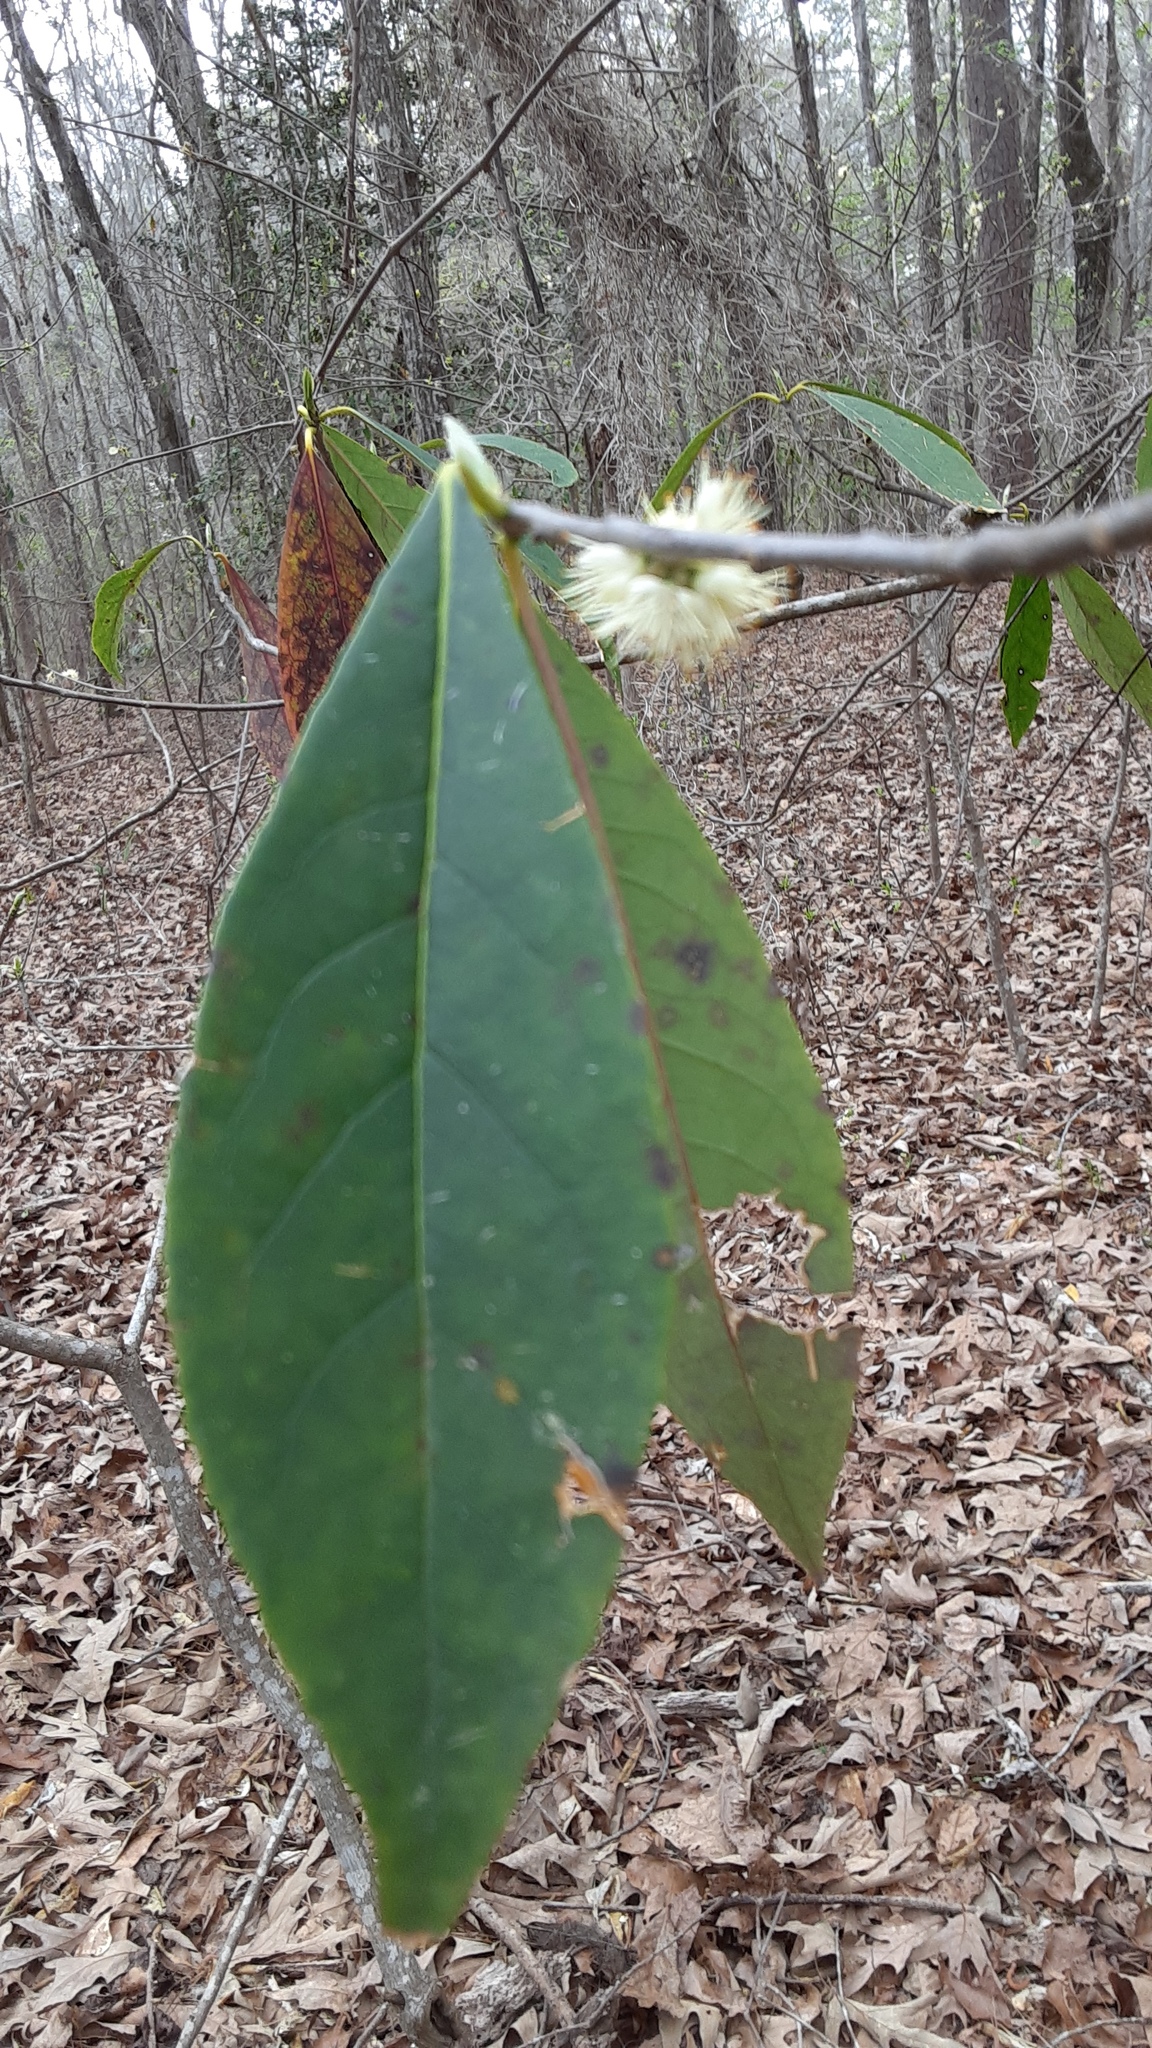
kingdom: Plantae
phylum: Tracheophyta
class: Magnoliopsida
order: Ericales
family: Symplocaceae
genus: Symplocos
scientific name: Symplocos tinctoria
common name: Horse-sugar
